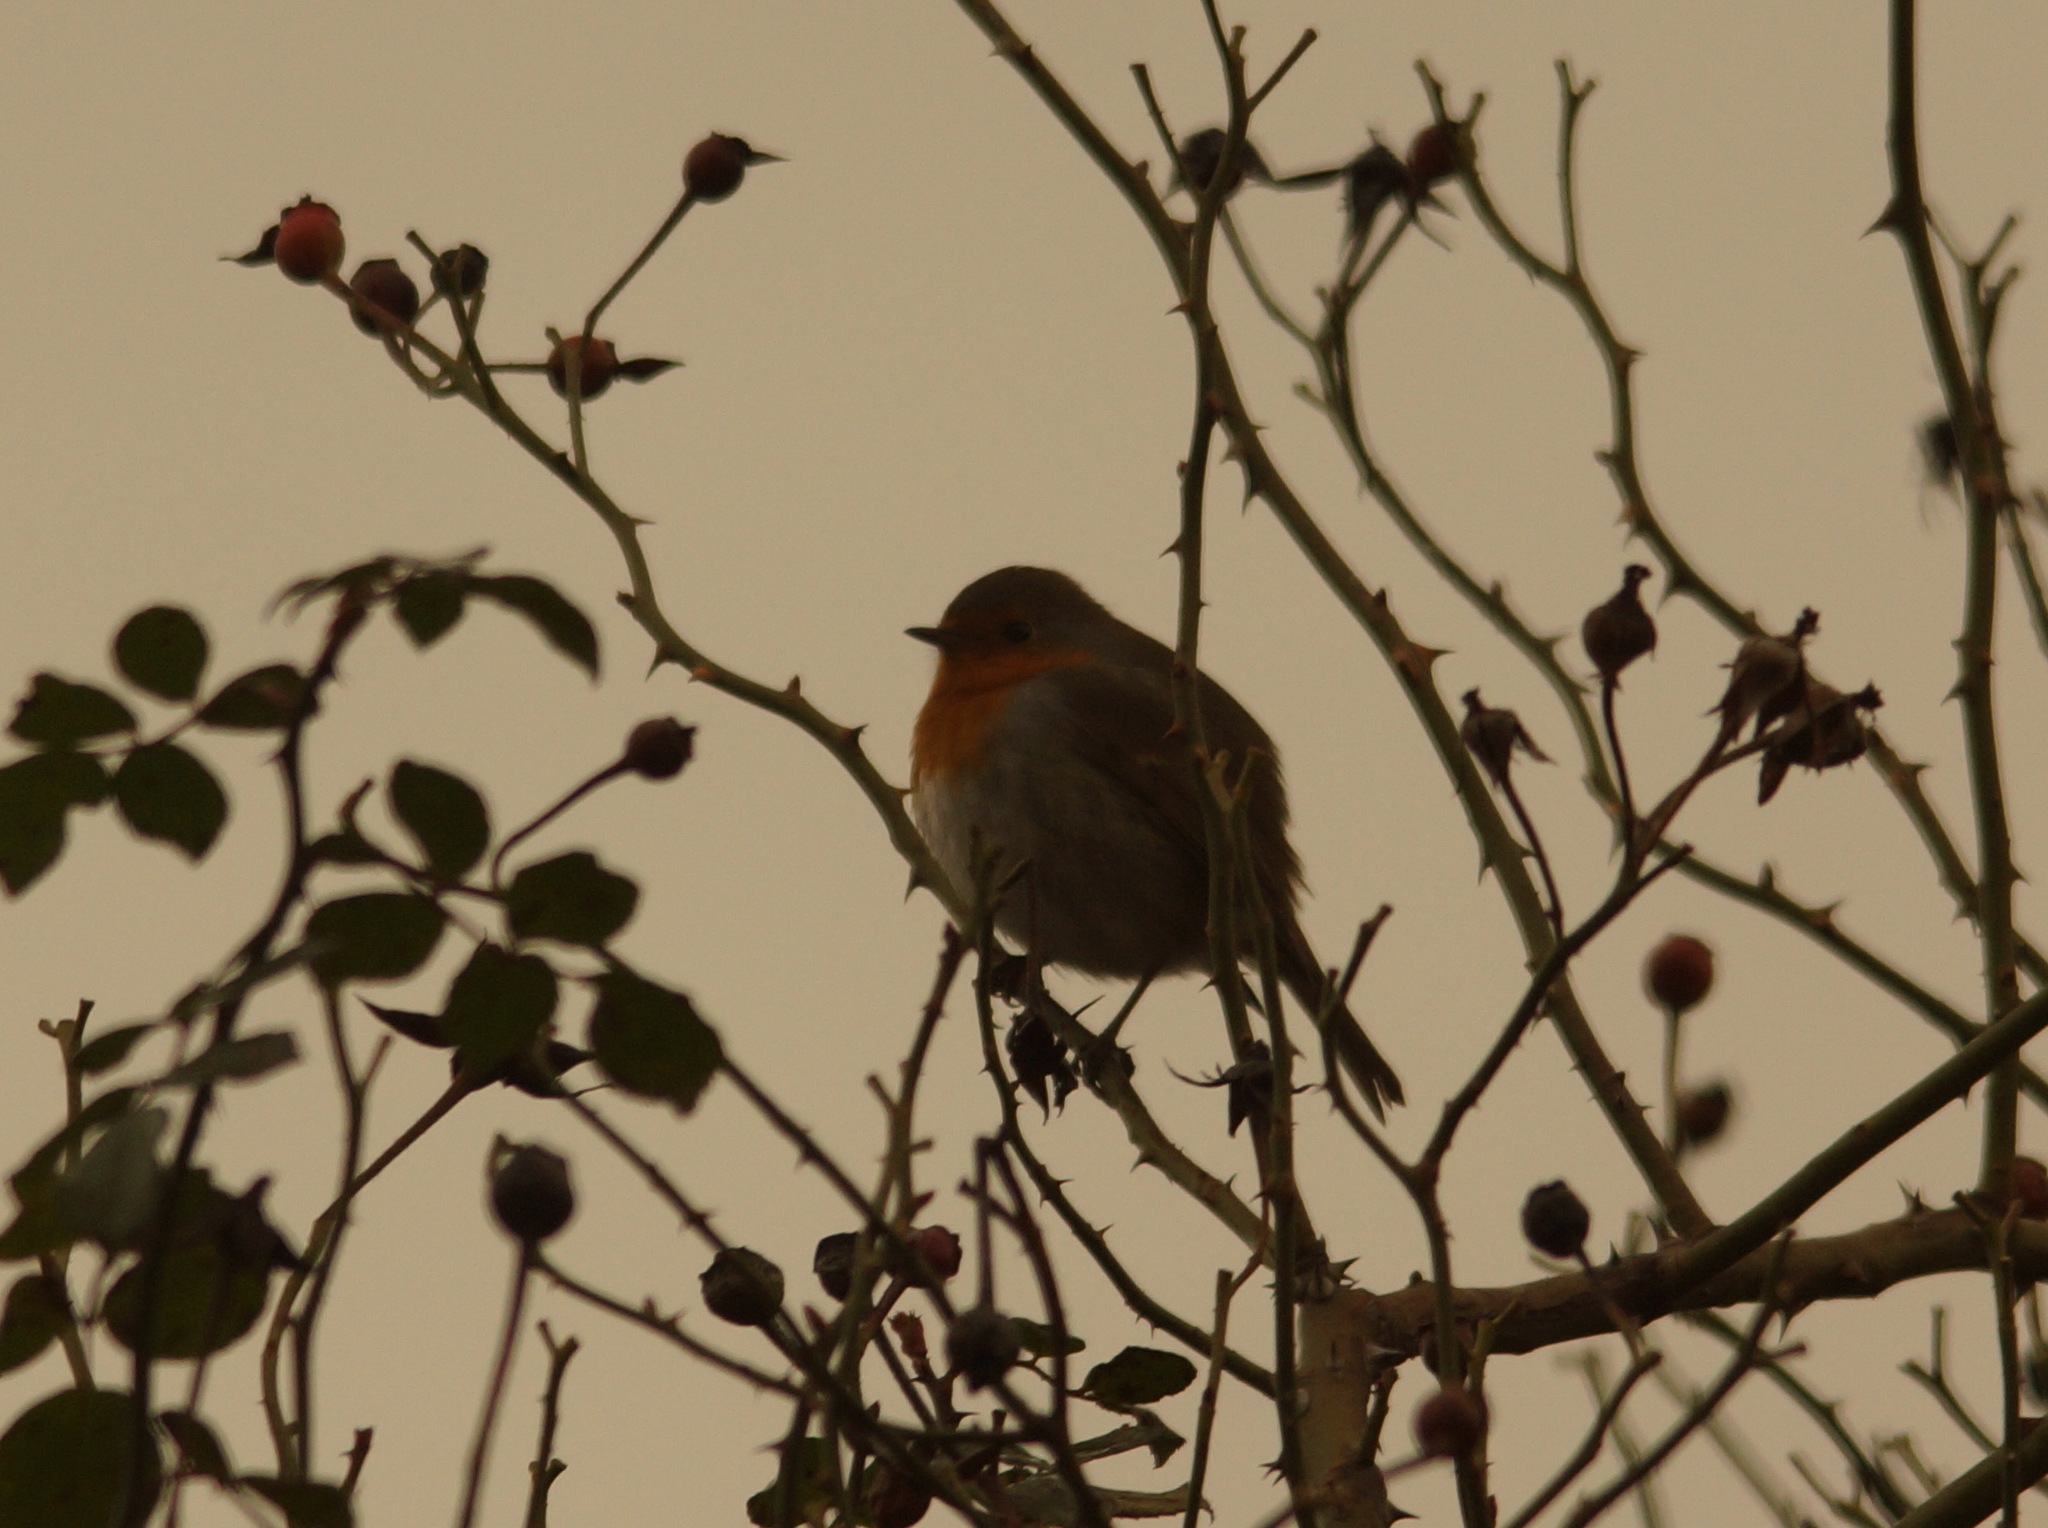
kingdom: Animalia
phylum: Chordata
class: Aves
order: Passeriformes
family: Muscicapidae
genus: Erithacus
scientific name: Erithacus rubecula
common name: European robin
